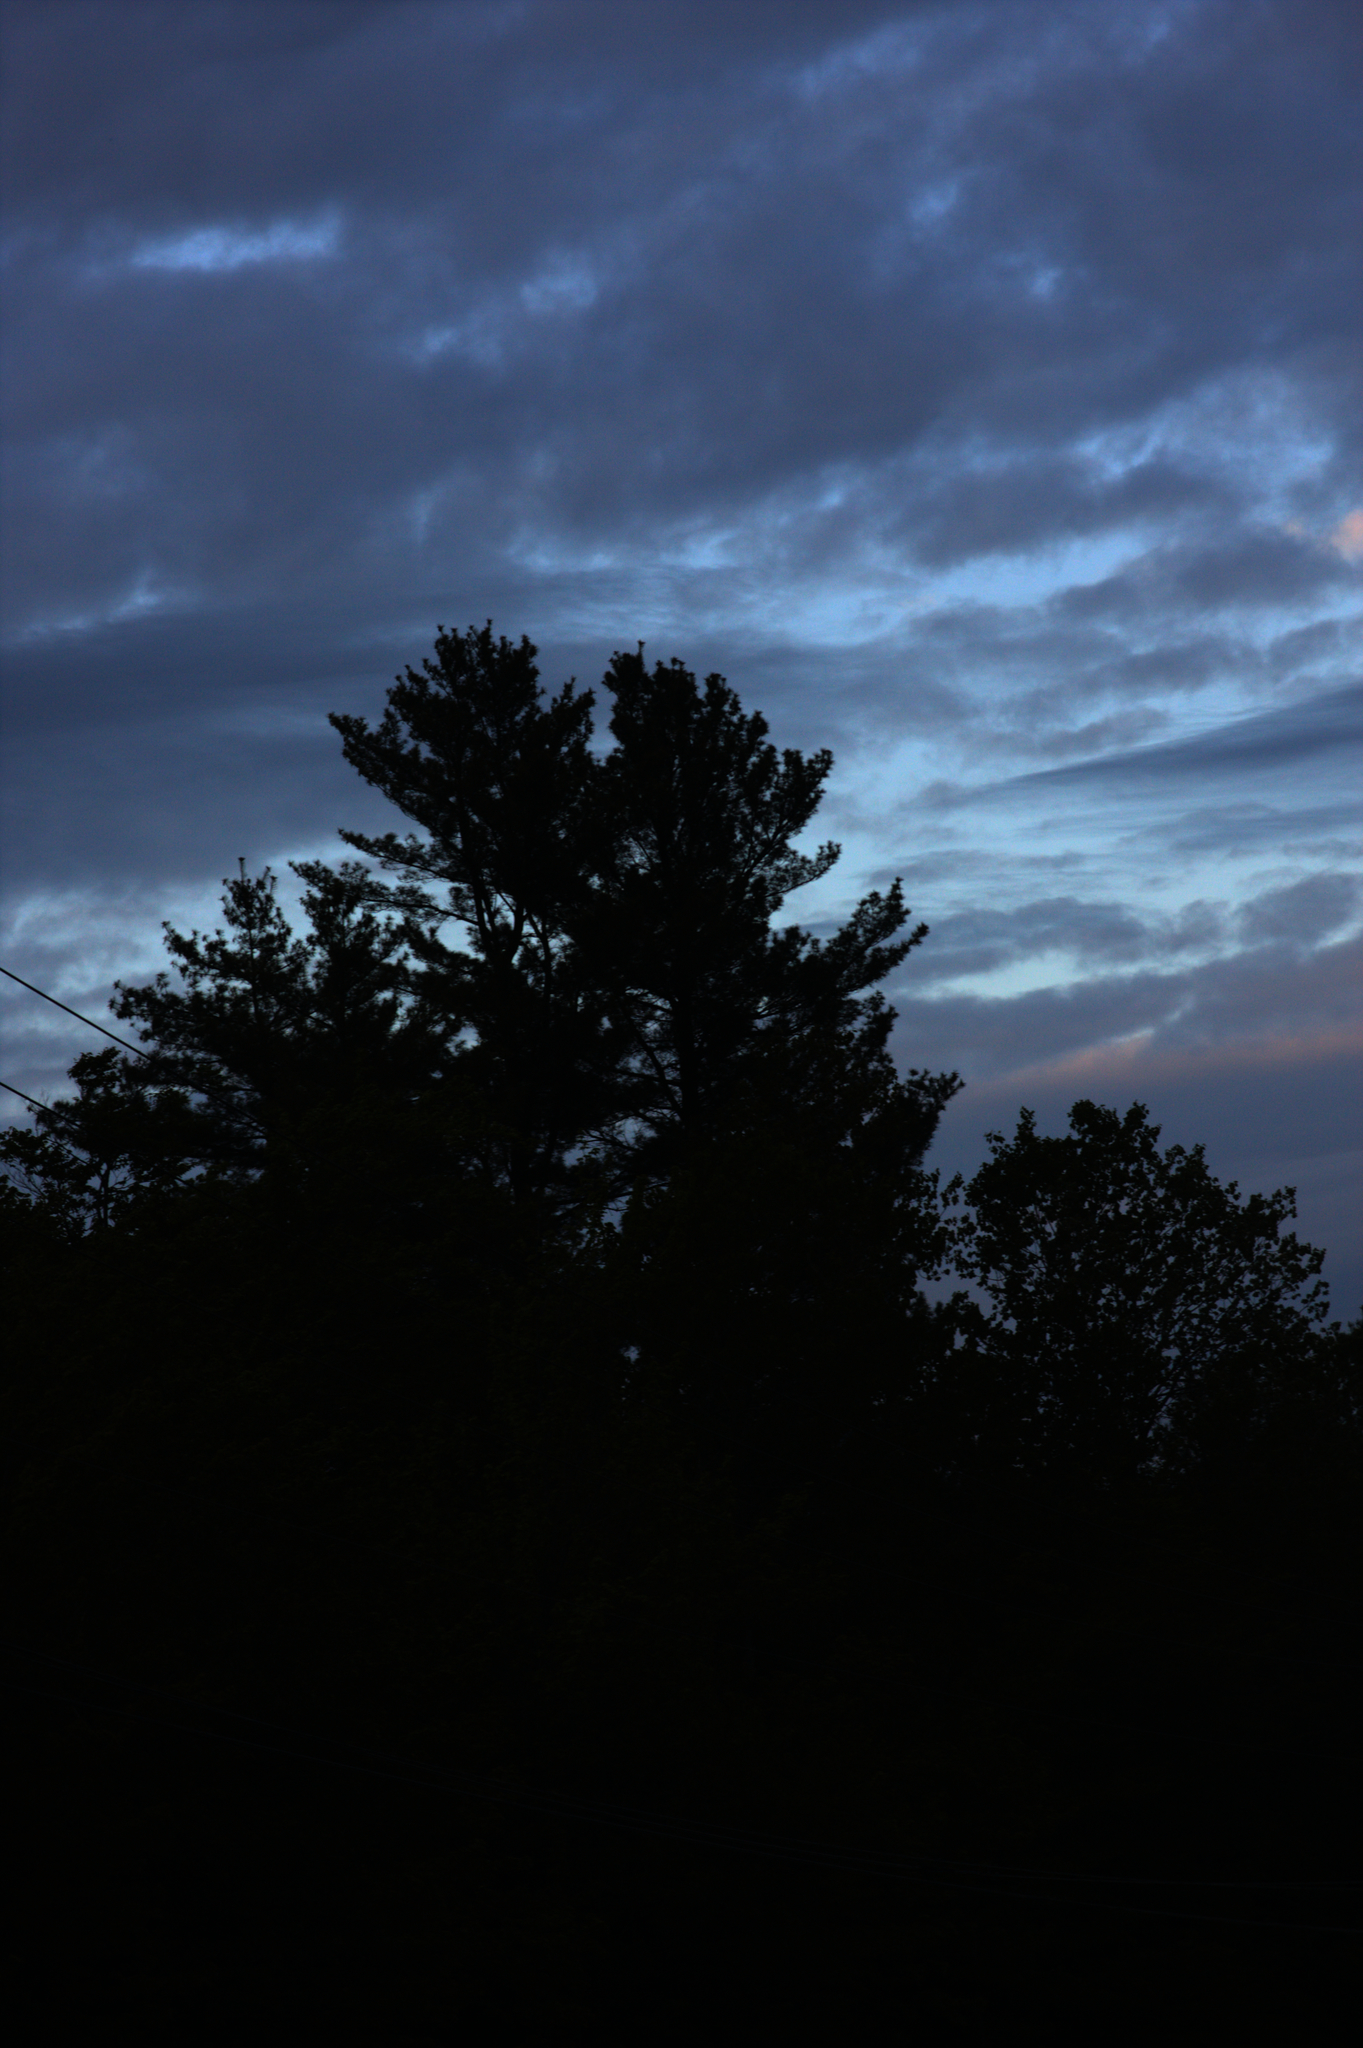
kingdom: Plantae
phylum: Tracheophyta
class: Pinopsida
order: Pinales
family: Pinaceae
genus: Pinus
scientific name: Pinus strobus
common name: Weymouth pine
